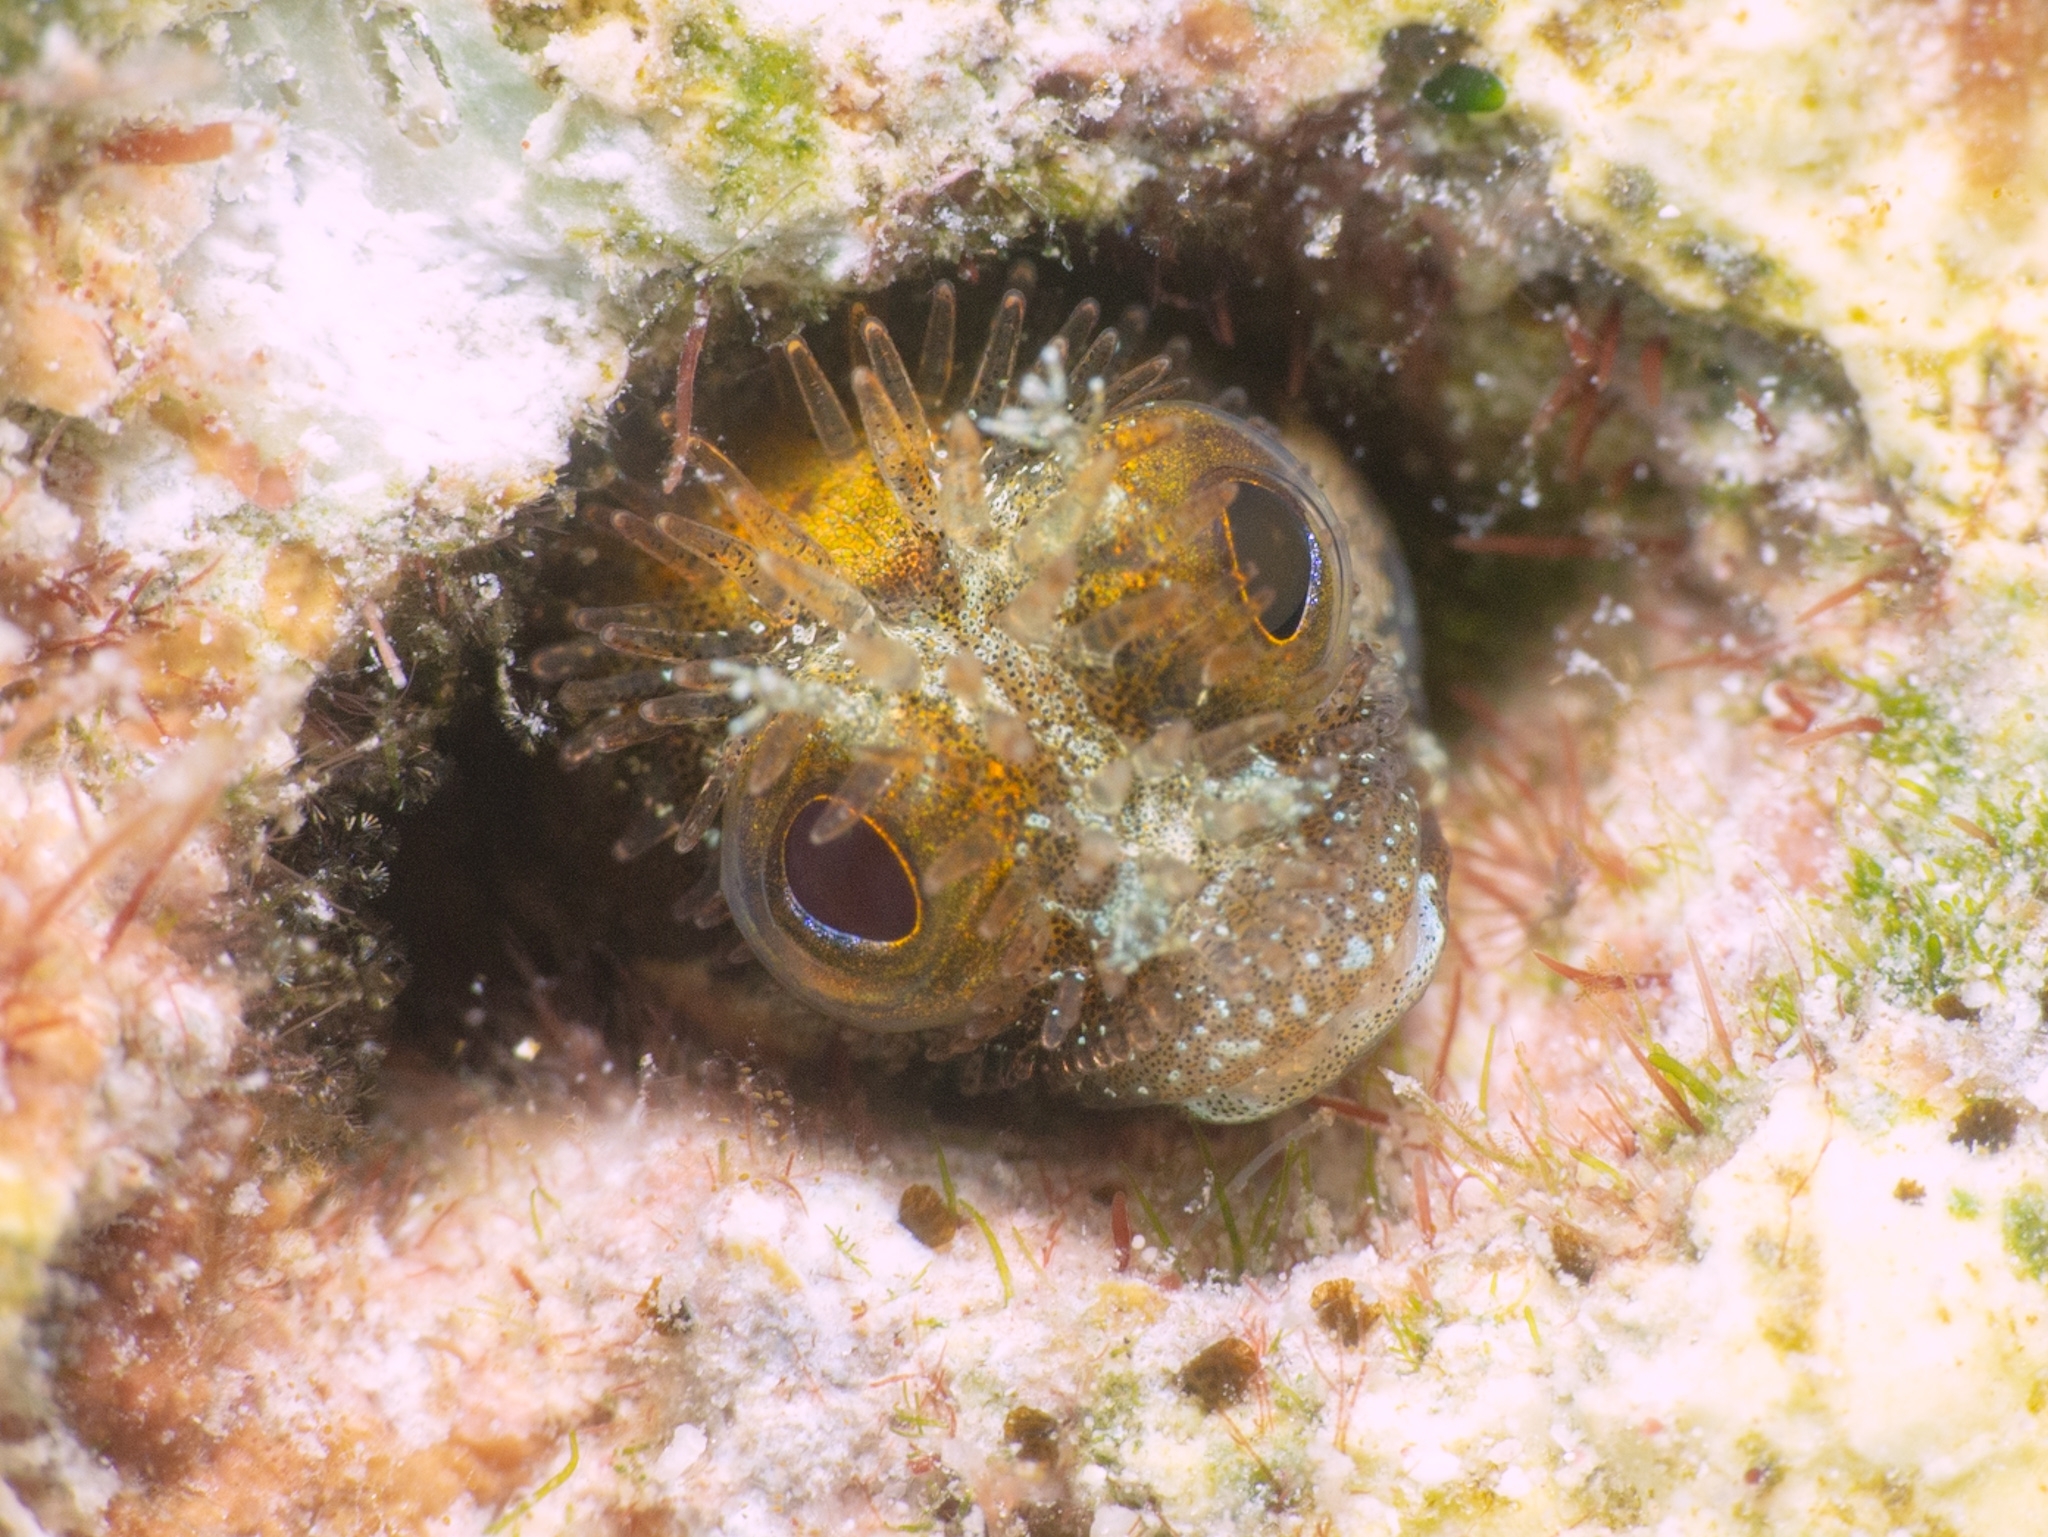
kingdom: Animalia
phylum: Chordata
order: Perciformes
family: Chaenopsidae
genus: Acanthemblemaria
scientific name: Acanthemblemaria maria
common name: Secretary blenny
